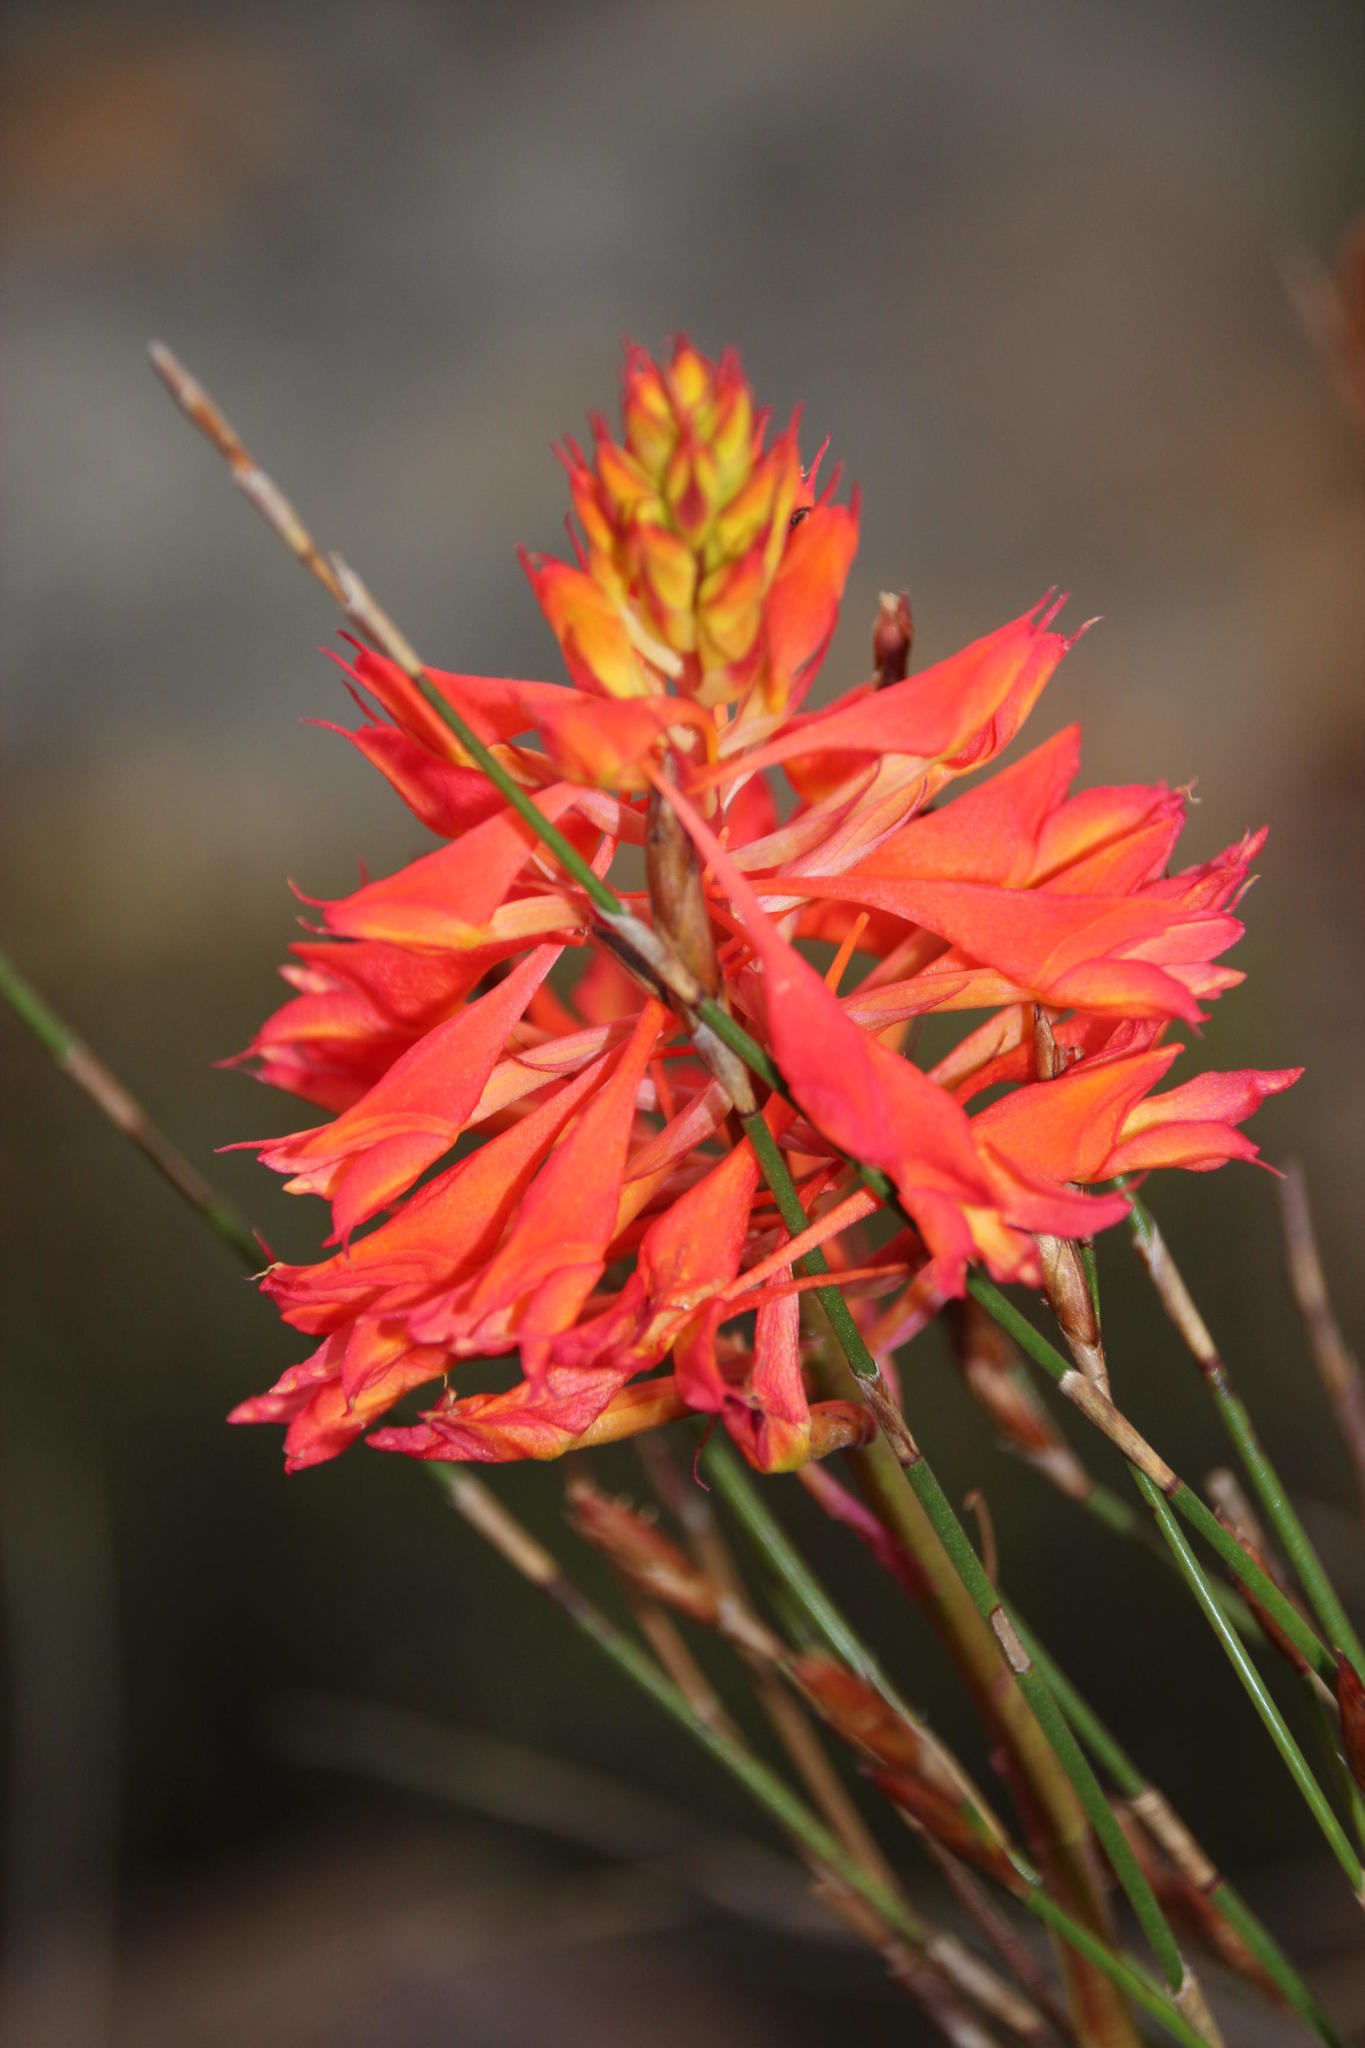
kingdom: Plantae
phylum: Tracheophyta
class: Liliopsida
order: Asparagales
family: Orchidaceae
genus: Disa
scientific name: Disa ferruginea
